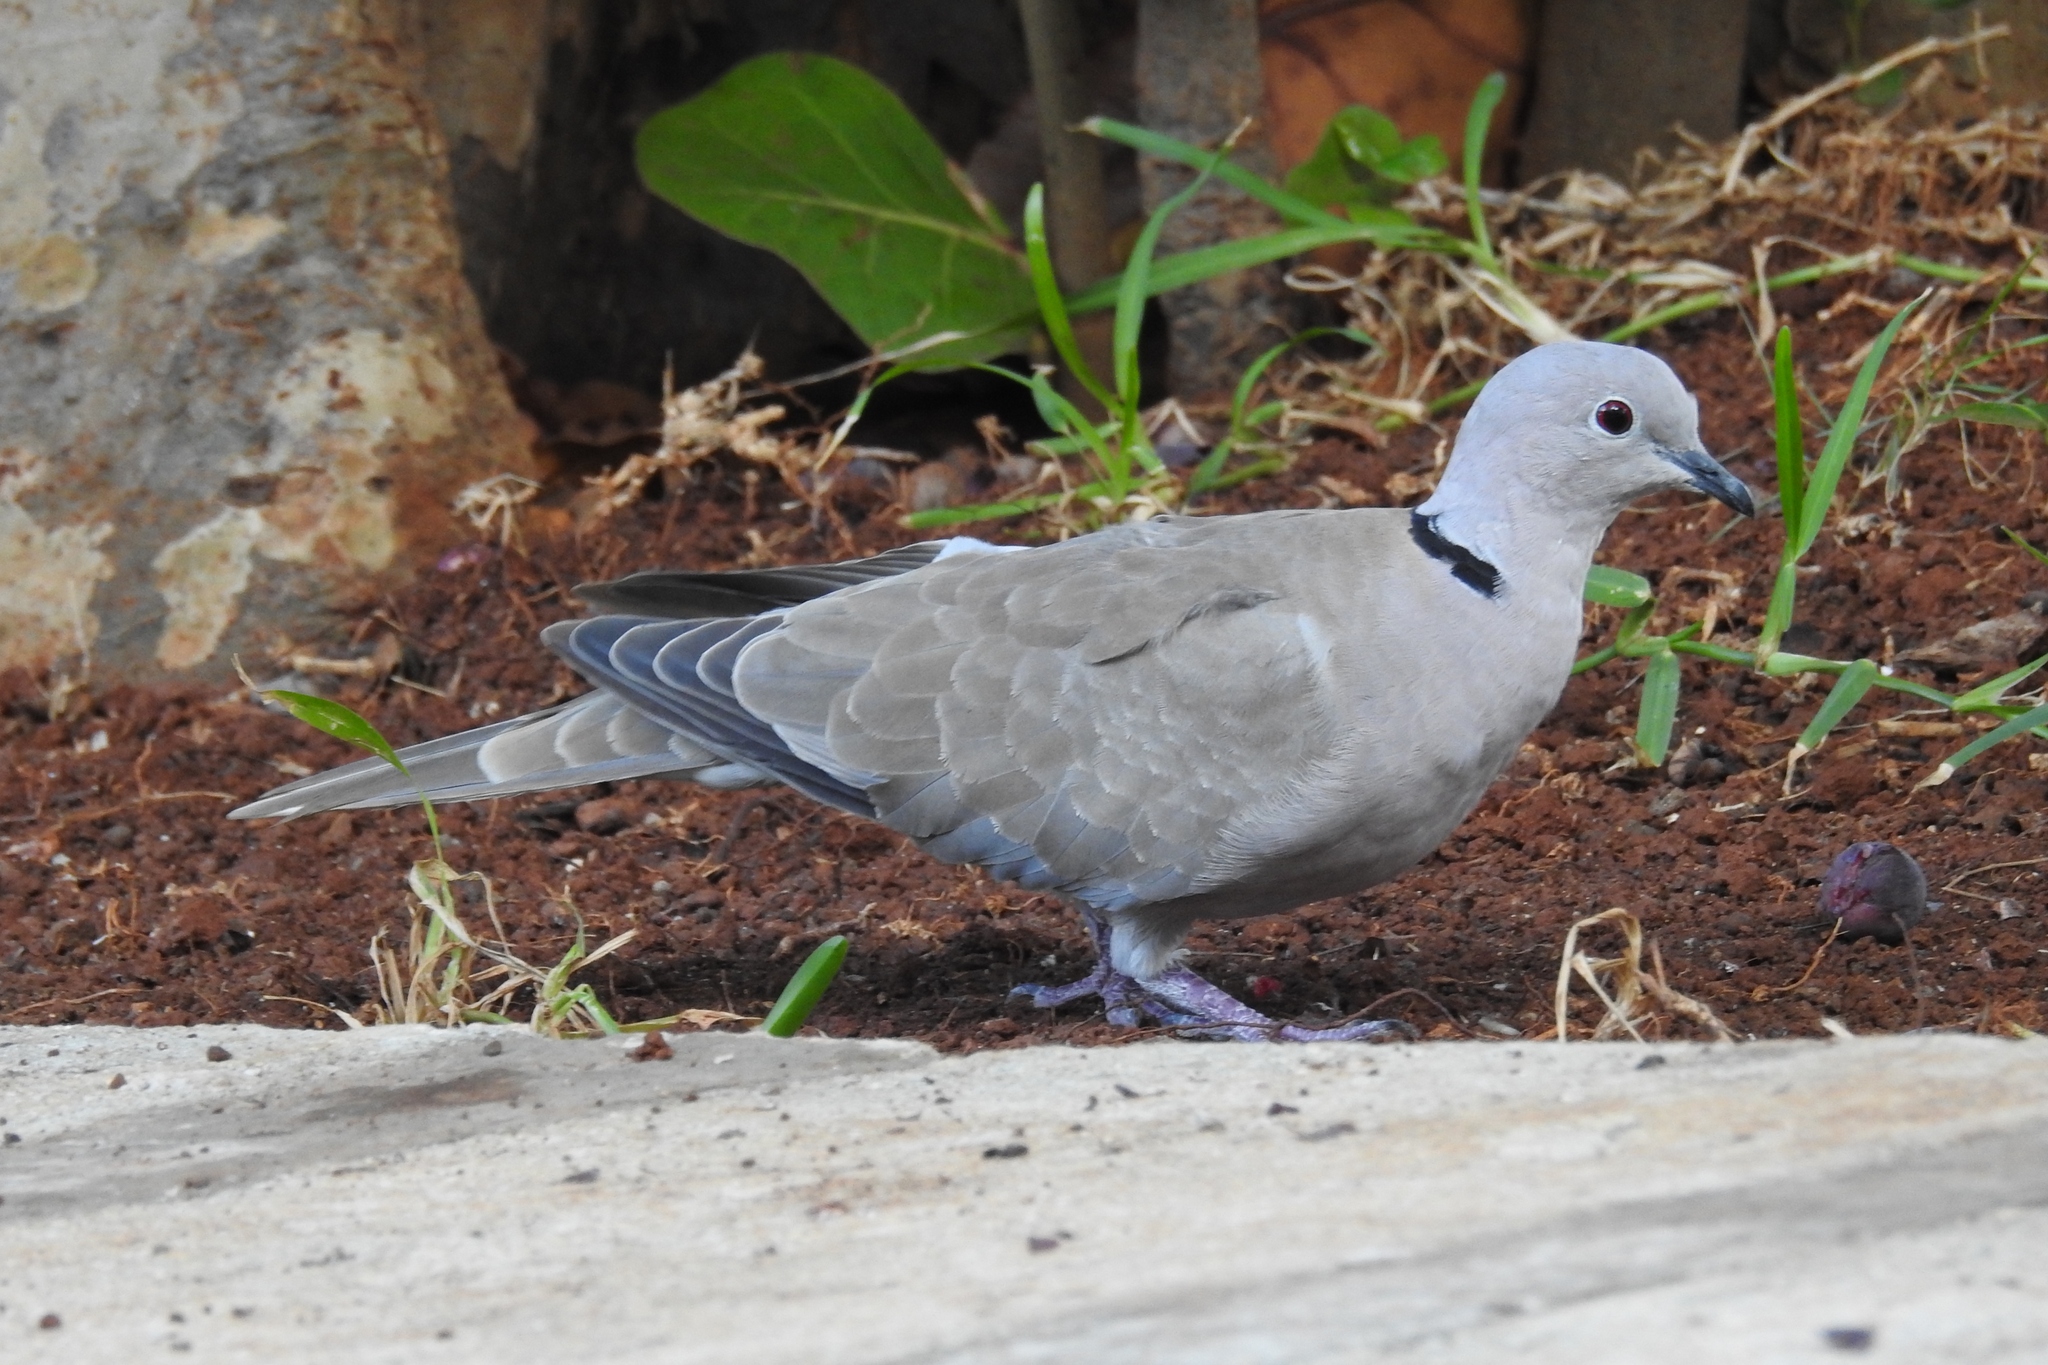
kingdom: Animalia
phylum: Chordata
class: Aves
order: Columbiformes
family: Columbidae
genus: Streptopelia
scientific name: Streptopelia decaocto
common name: Eurasian collared dove
